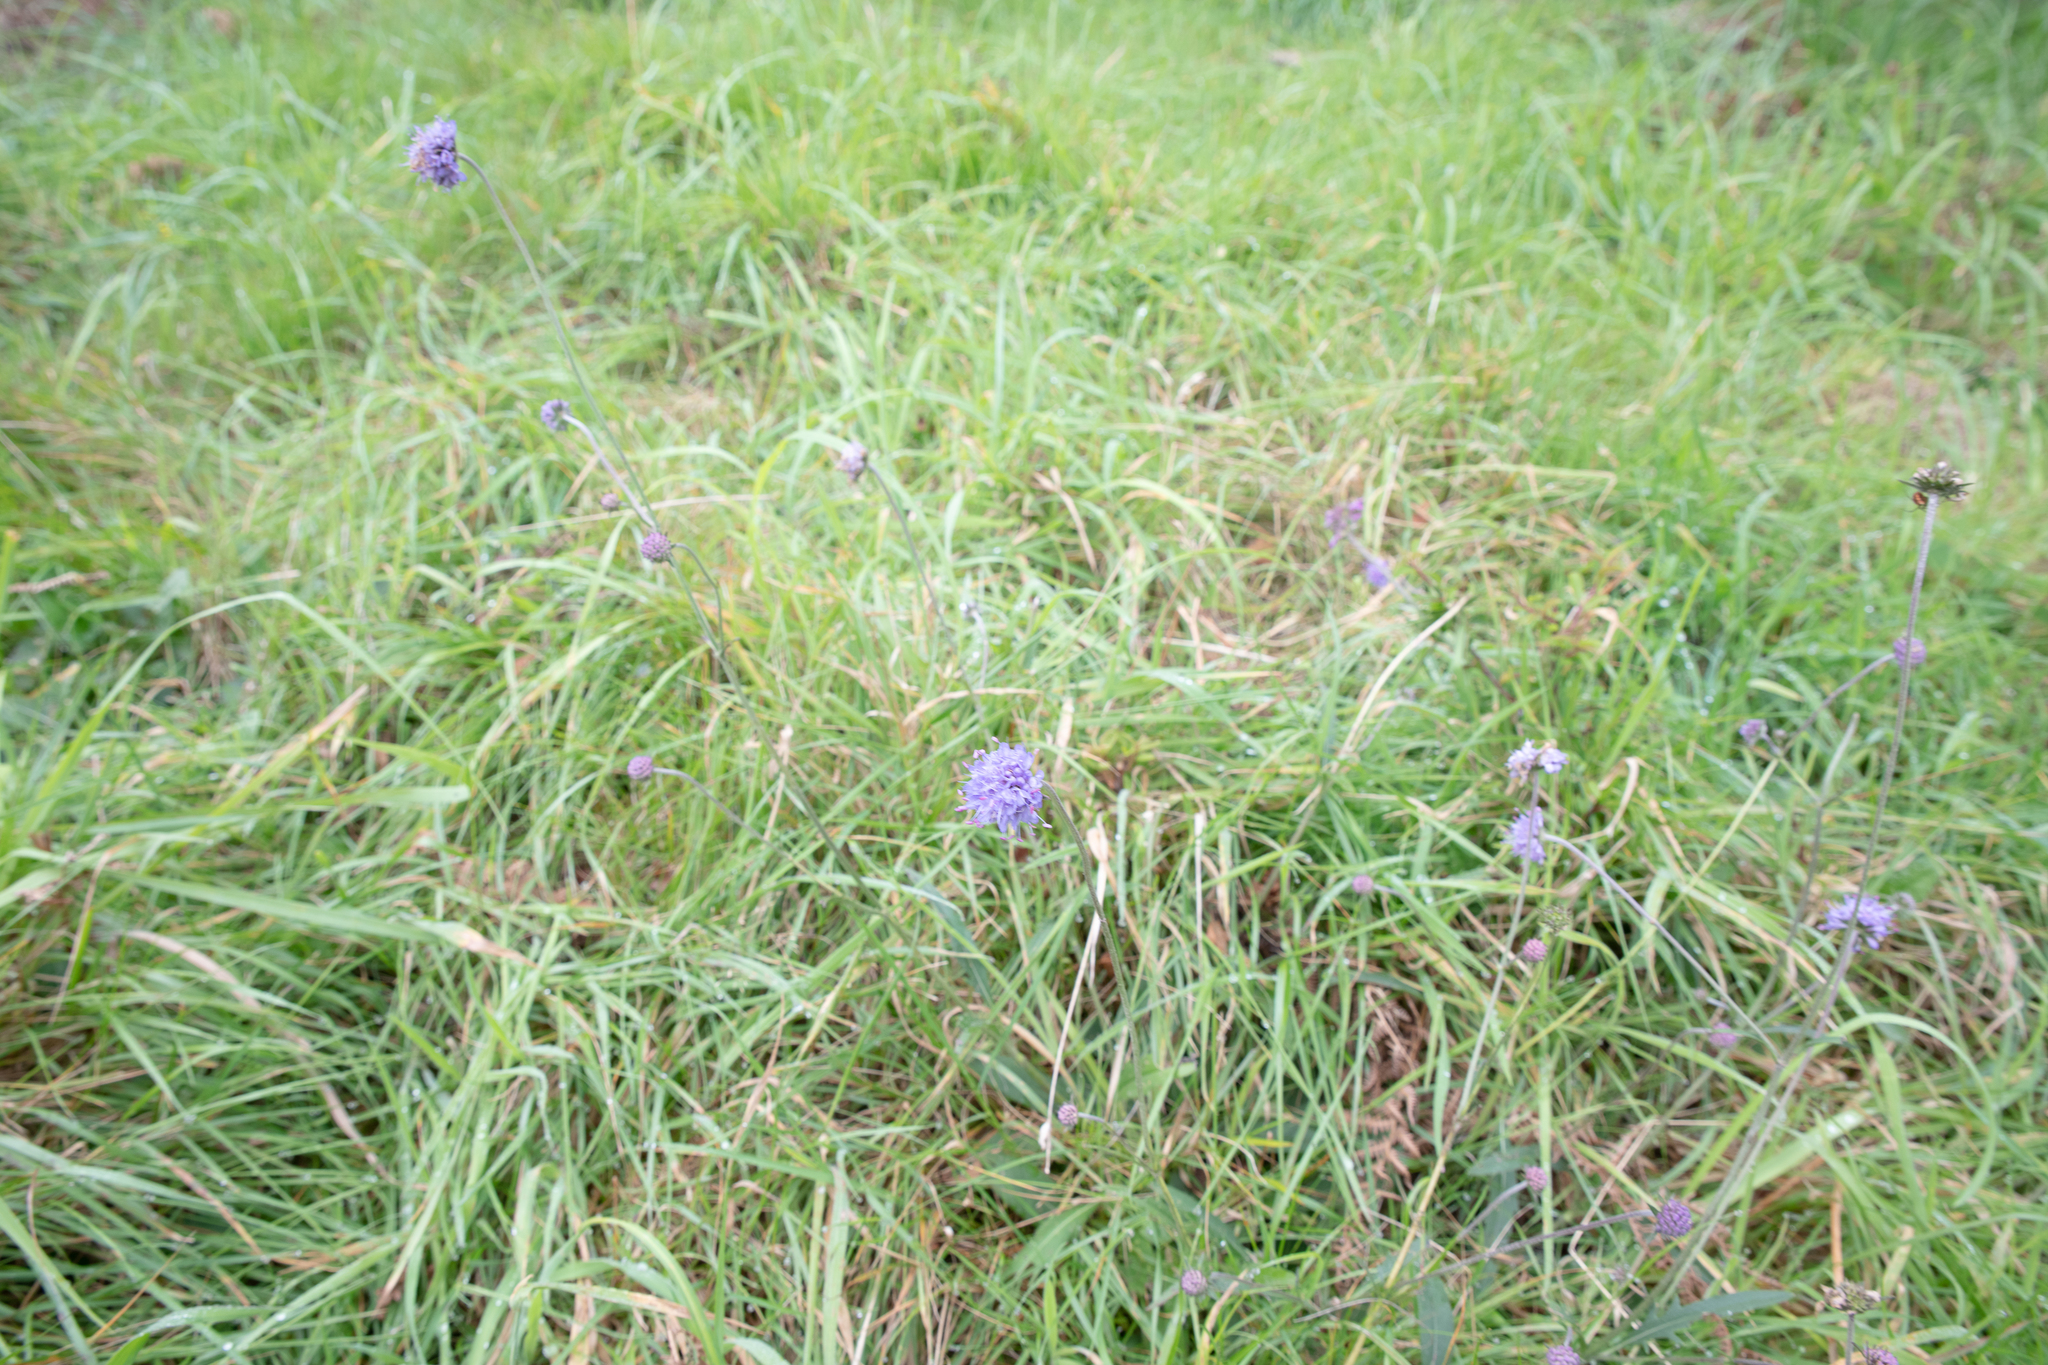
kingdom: Plantae
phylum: Tracheophyta
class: Magnoliopsida
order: Dipsacales
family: Caprifoliaceae
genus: Succisa
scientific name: Succisa pratensis
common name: Devil's-bit
